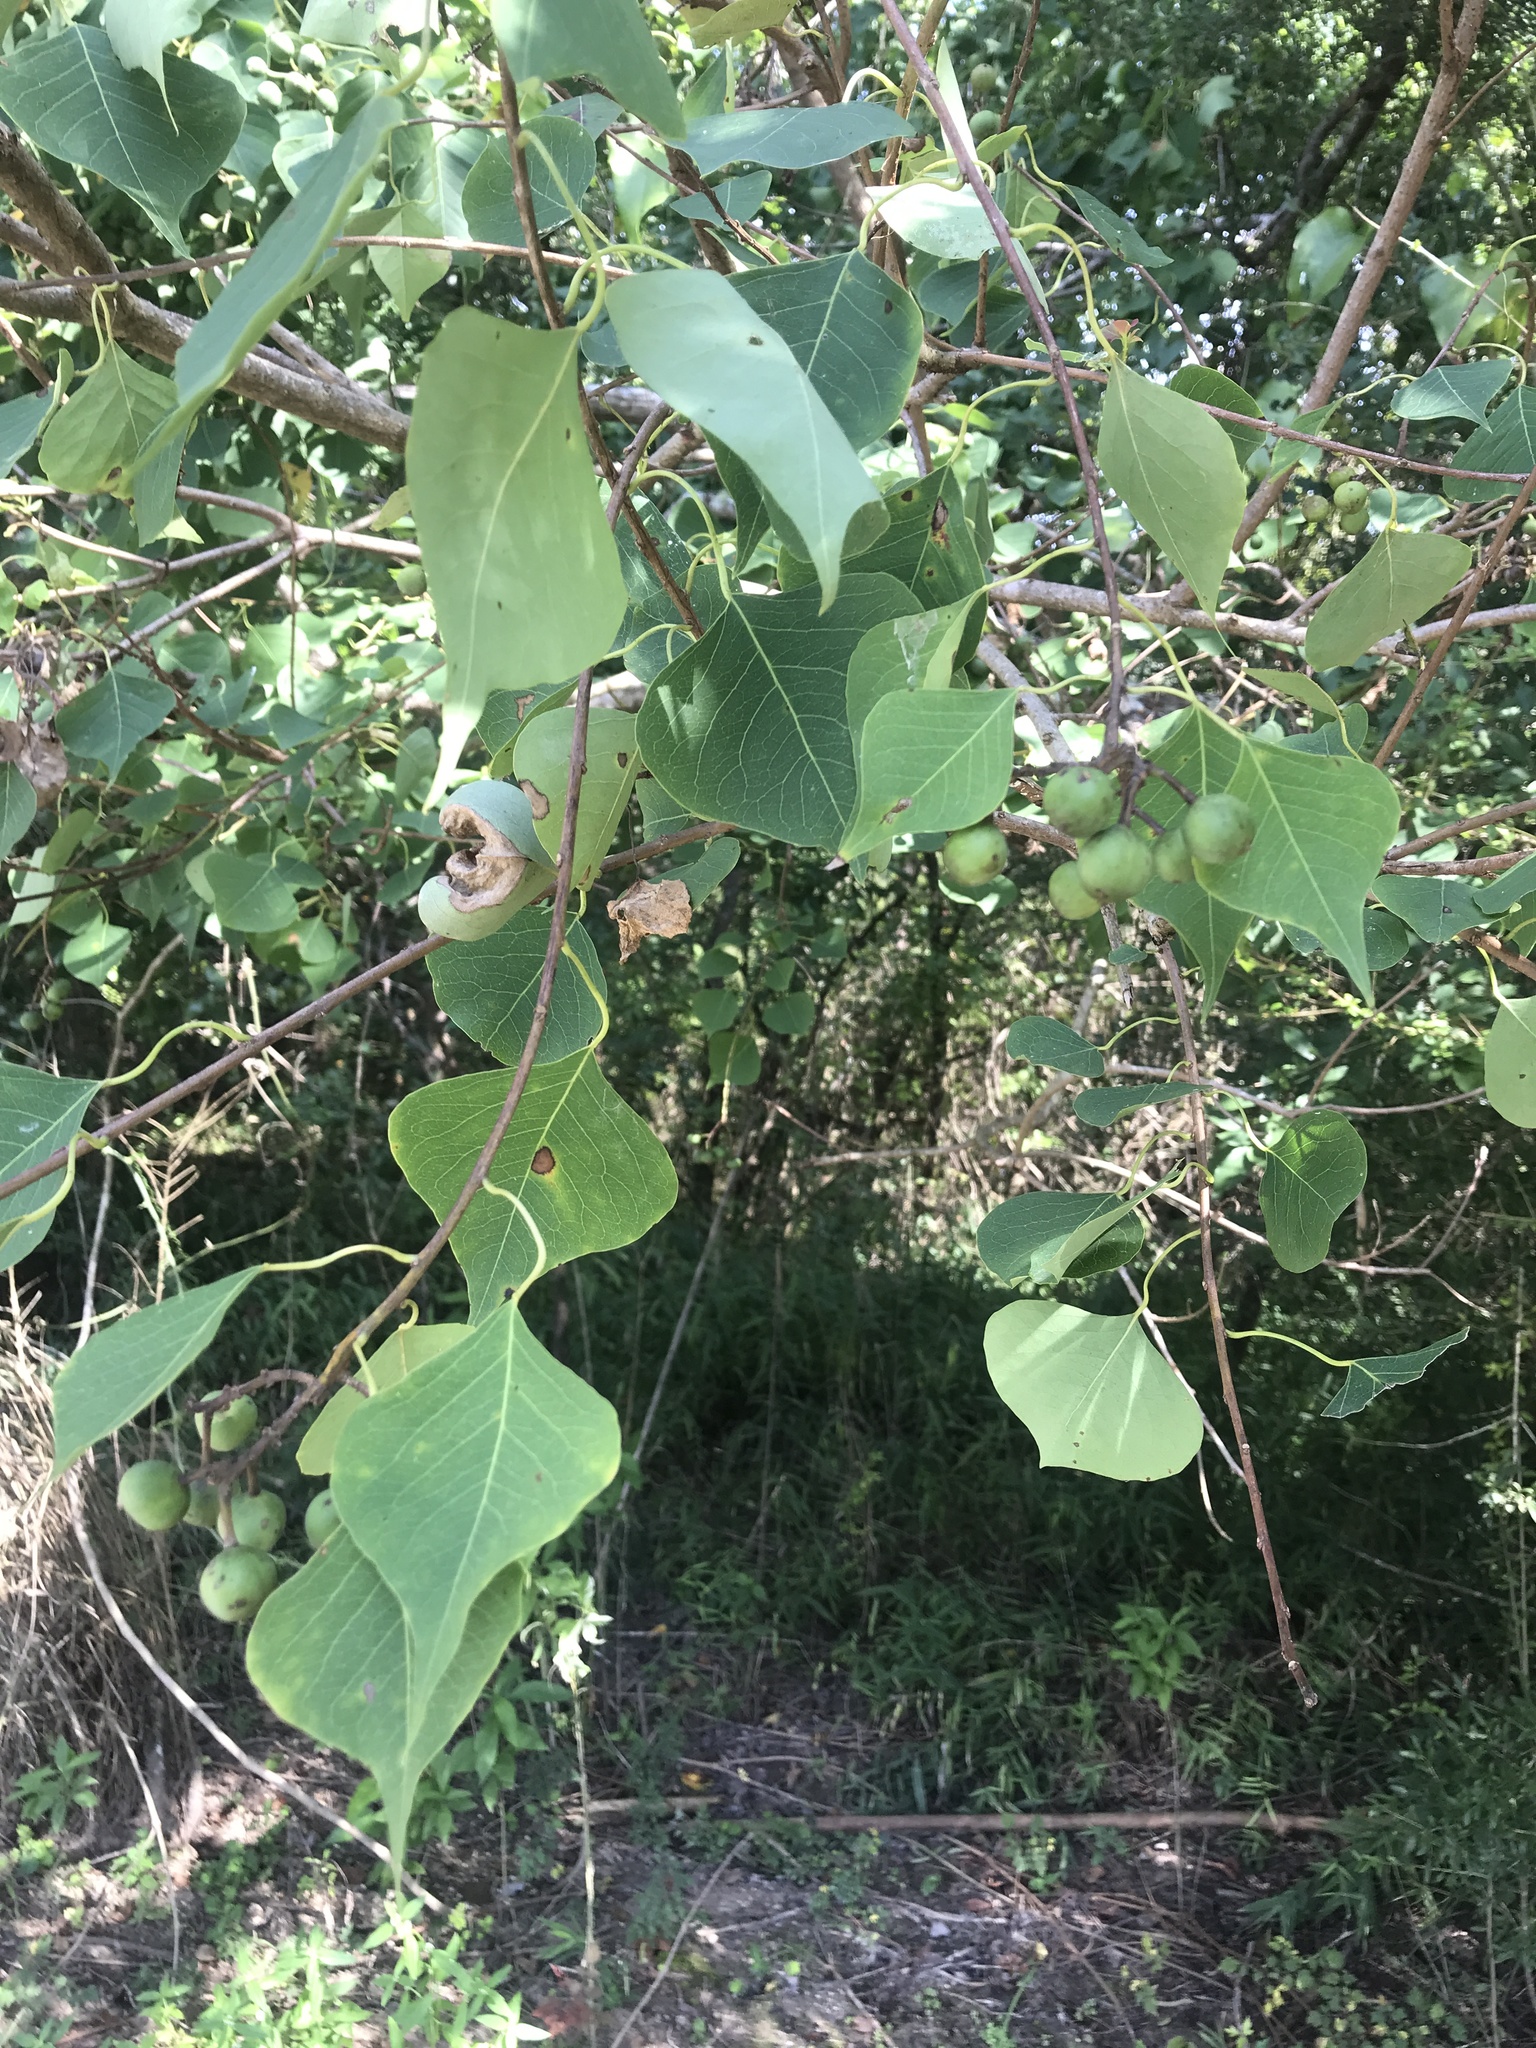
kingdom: Plantae
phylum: Tracheophyta
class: Magnoliopsida
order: Malpighiales
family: Euphorbiaceae
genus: Triadica
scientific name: Triadica sebifera
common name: Chinese tallow
